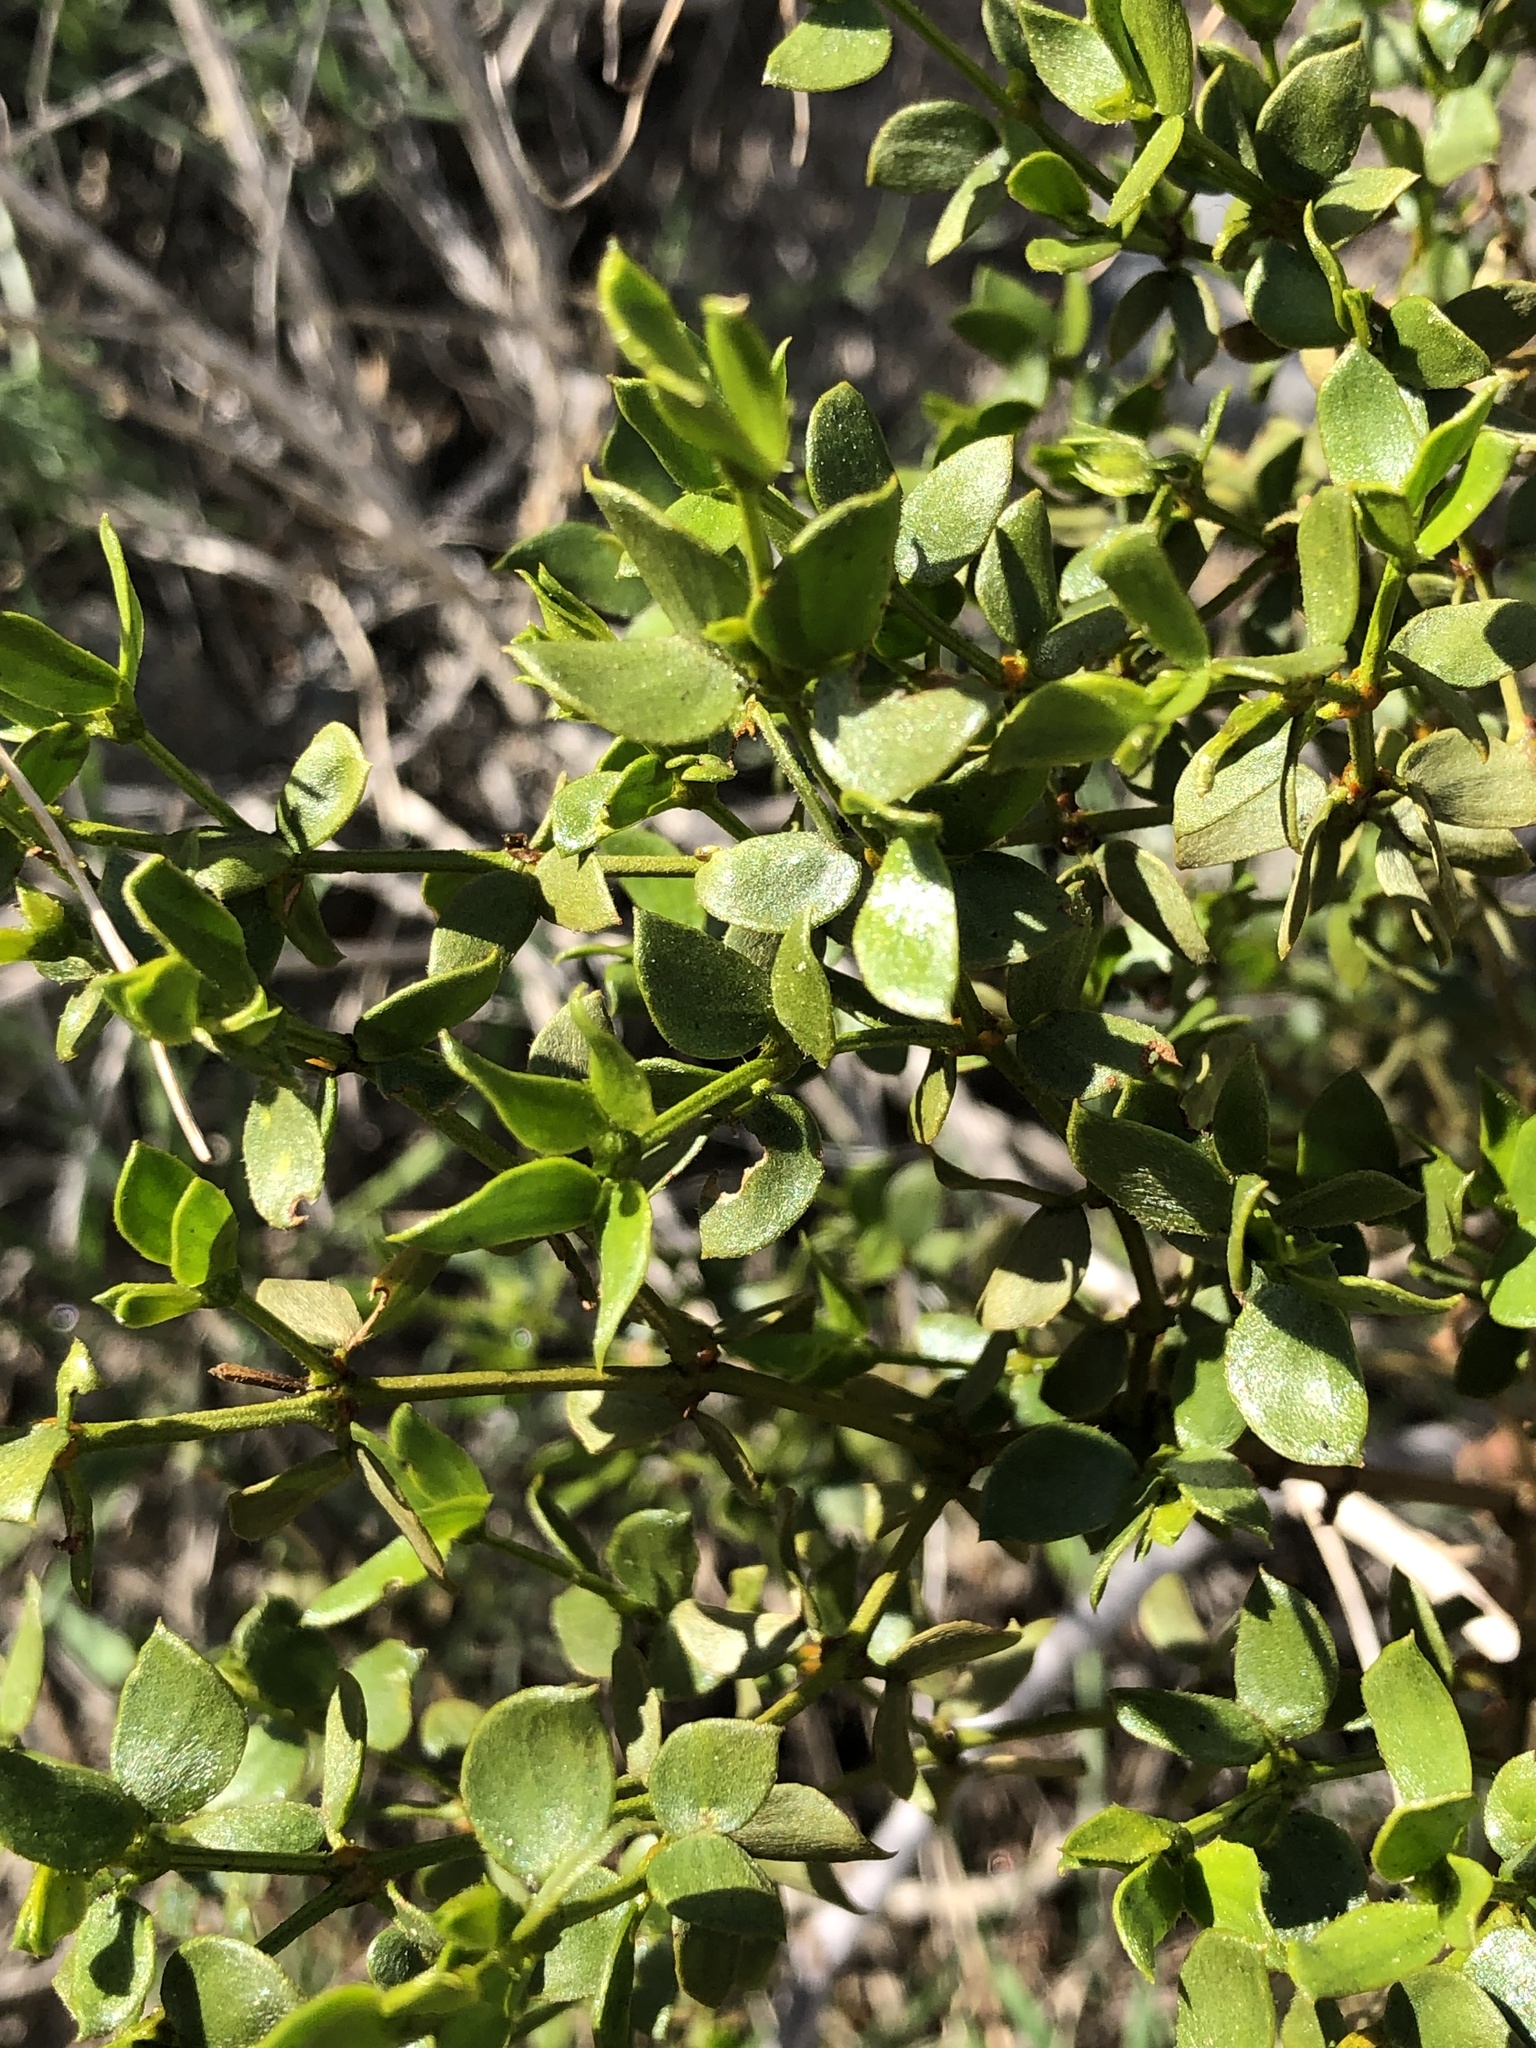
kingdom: Plantae
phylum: Tracheophyta
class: Magnoliopsida
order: Zygophyllales
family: Zygophyllaceae
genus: Larrea
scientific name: Larrea tridentata
